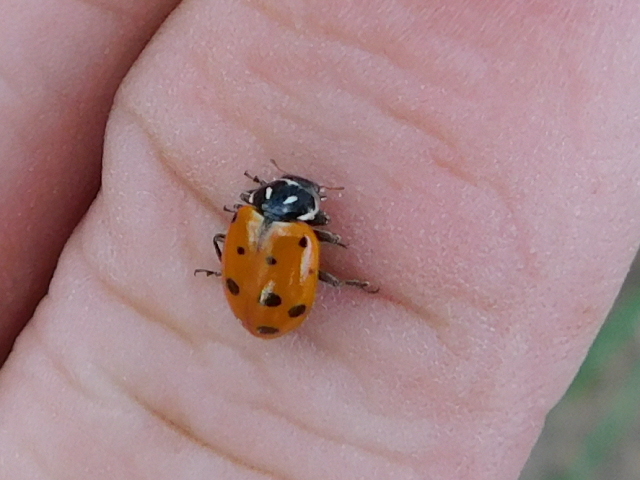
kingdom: Animalia
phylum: Arthropoda
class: Insecta
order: Coleoptera
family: Coccinellidae
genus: Hippodamia
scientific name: Hippodamia convergens
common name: Convergent lady beetle
